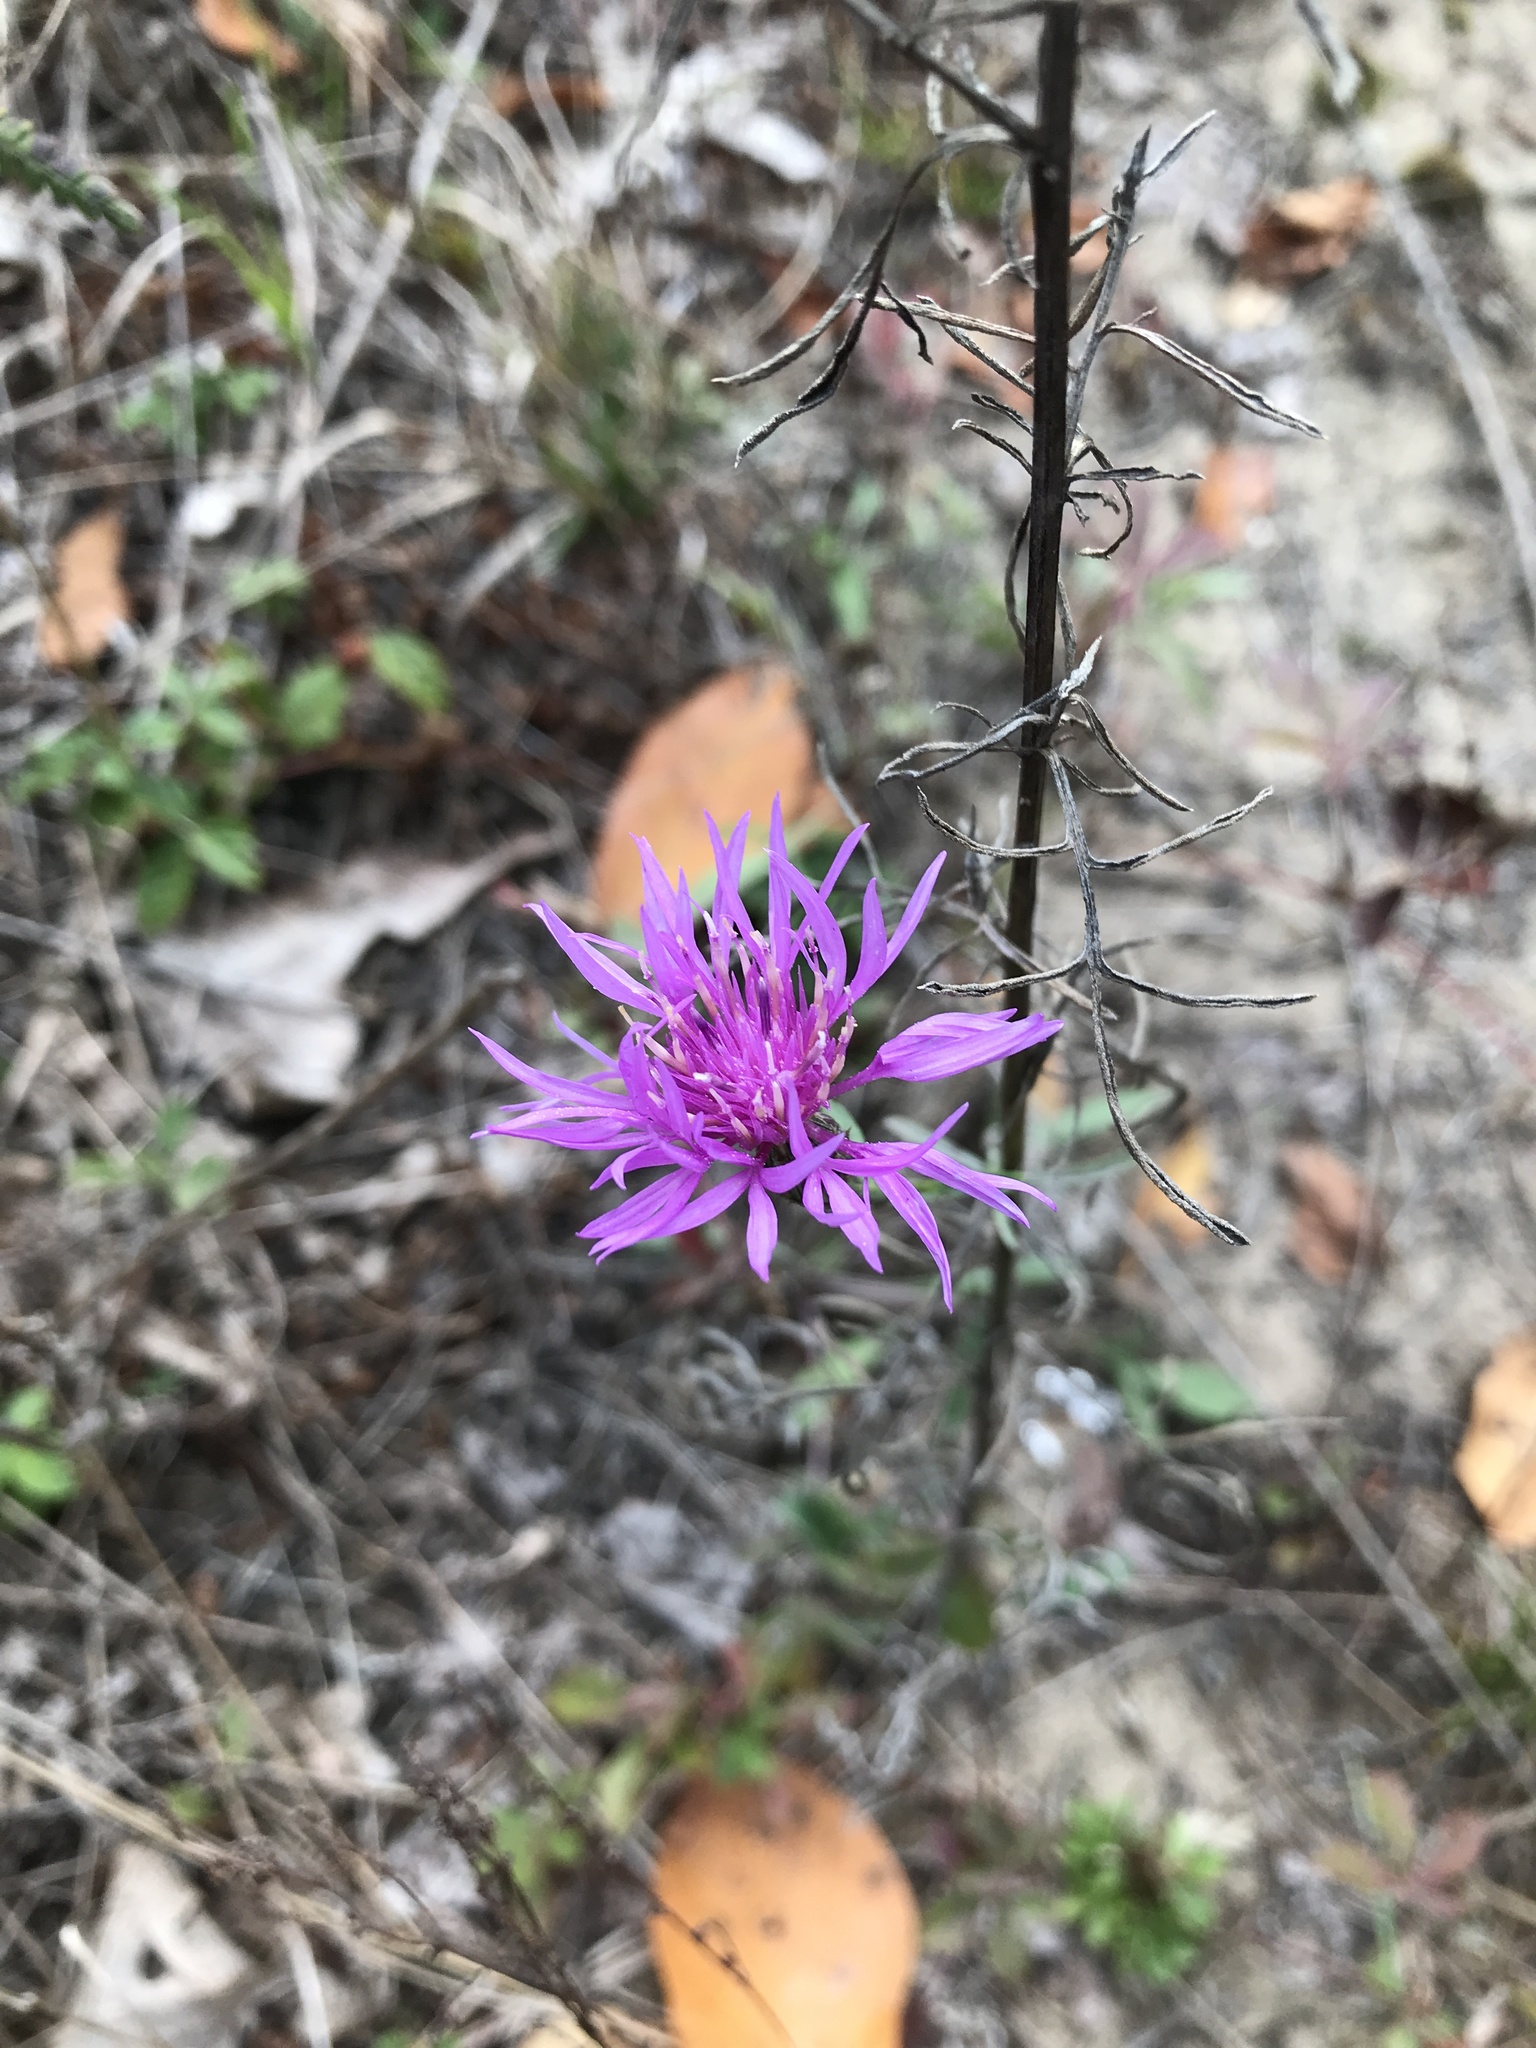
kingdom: Plantae
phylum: Tracheophyta
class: Magnoliopsida
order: Asterales
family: Asteraceae
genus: Centaurea
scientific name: Centaurea stoebe
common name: Spotted knapweed
